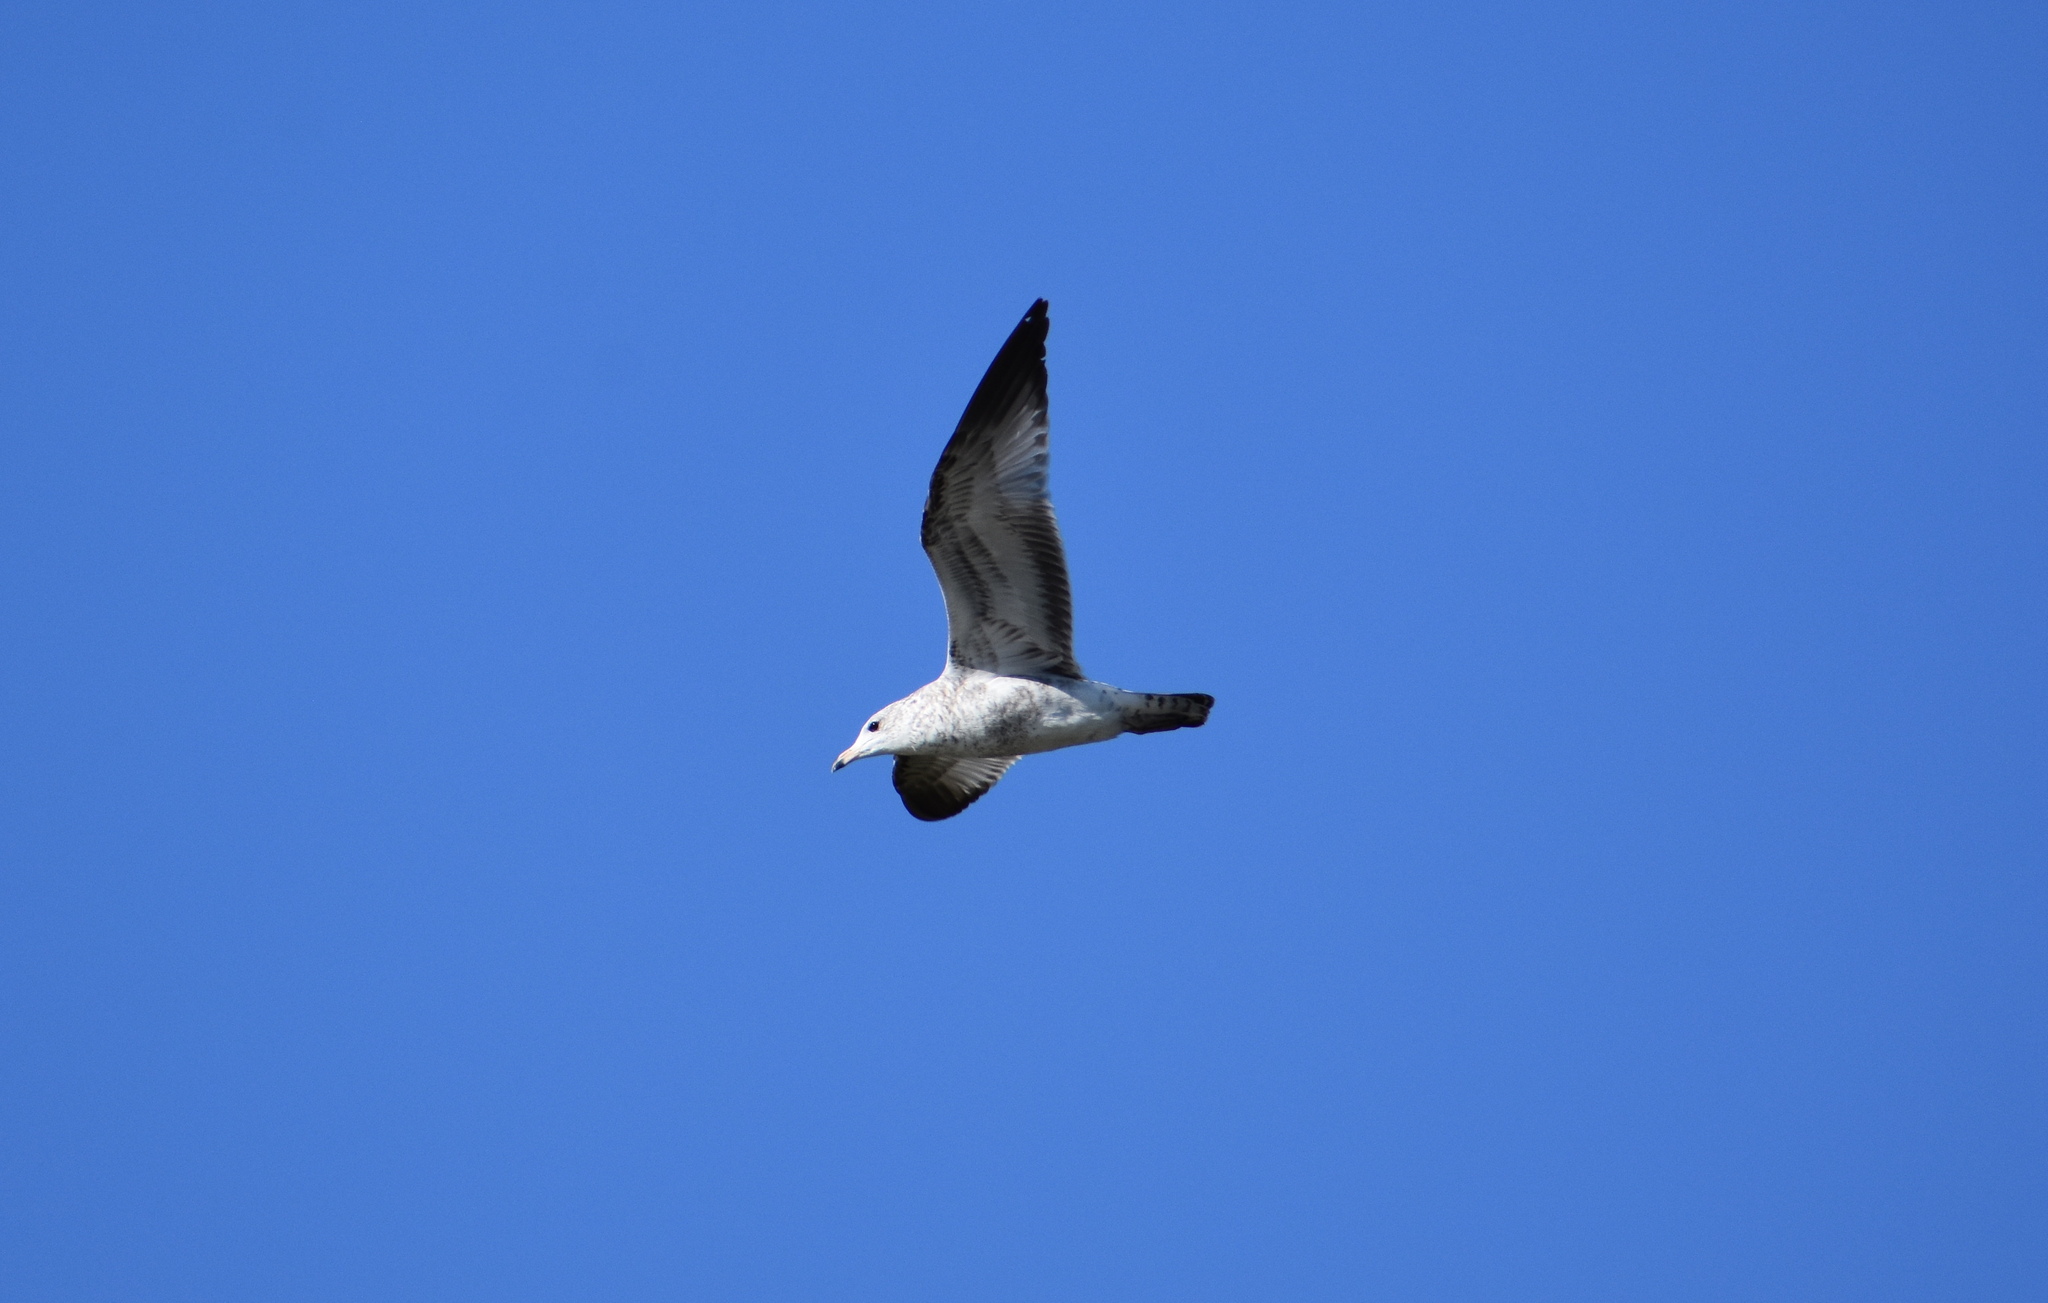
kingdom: Animalia
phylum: Chordata
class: Aves
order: Charadriiformes
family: Laridae
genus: Larus
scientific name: Larus delawarensis
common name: Ring-billed gull
